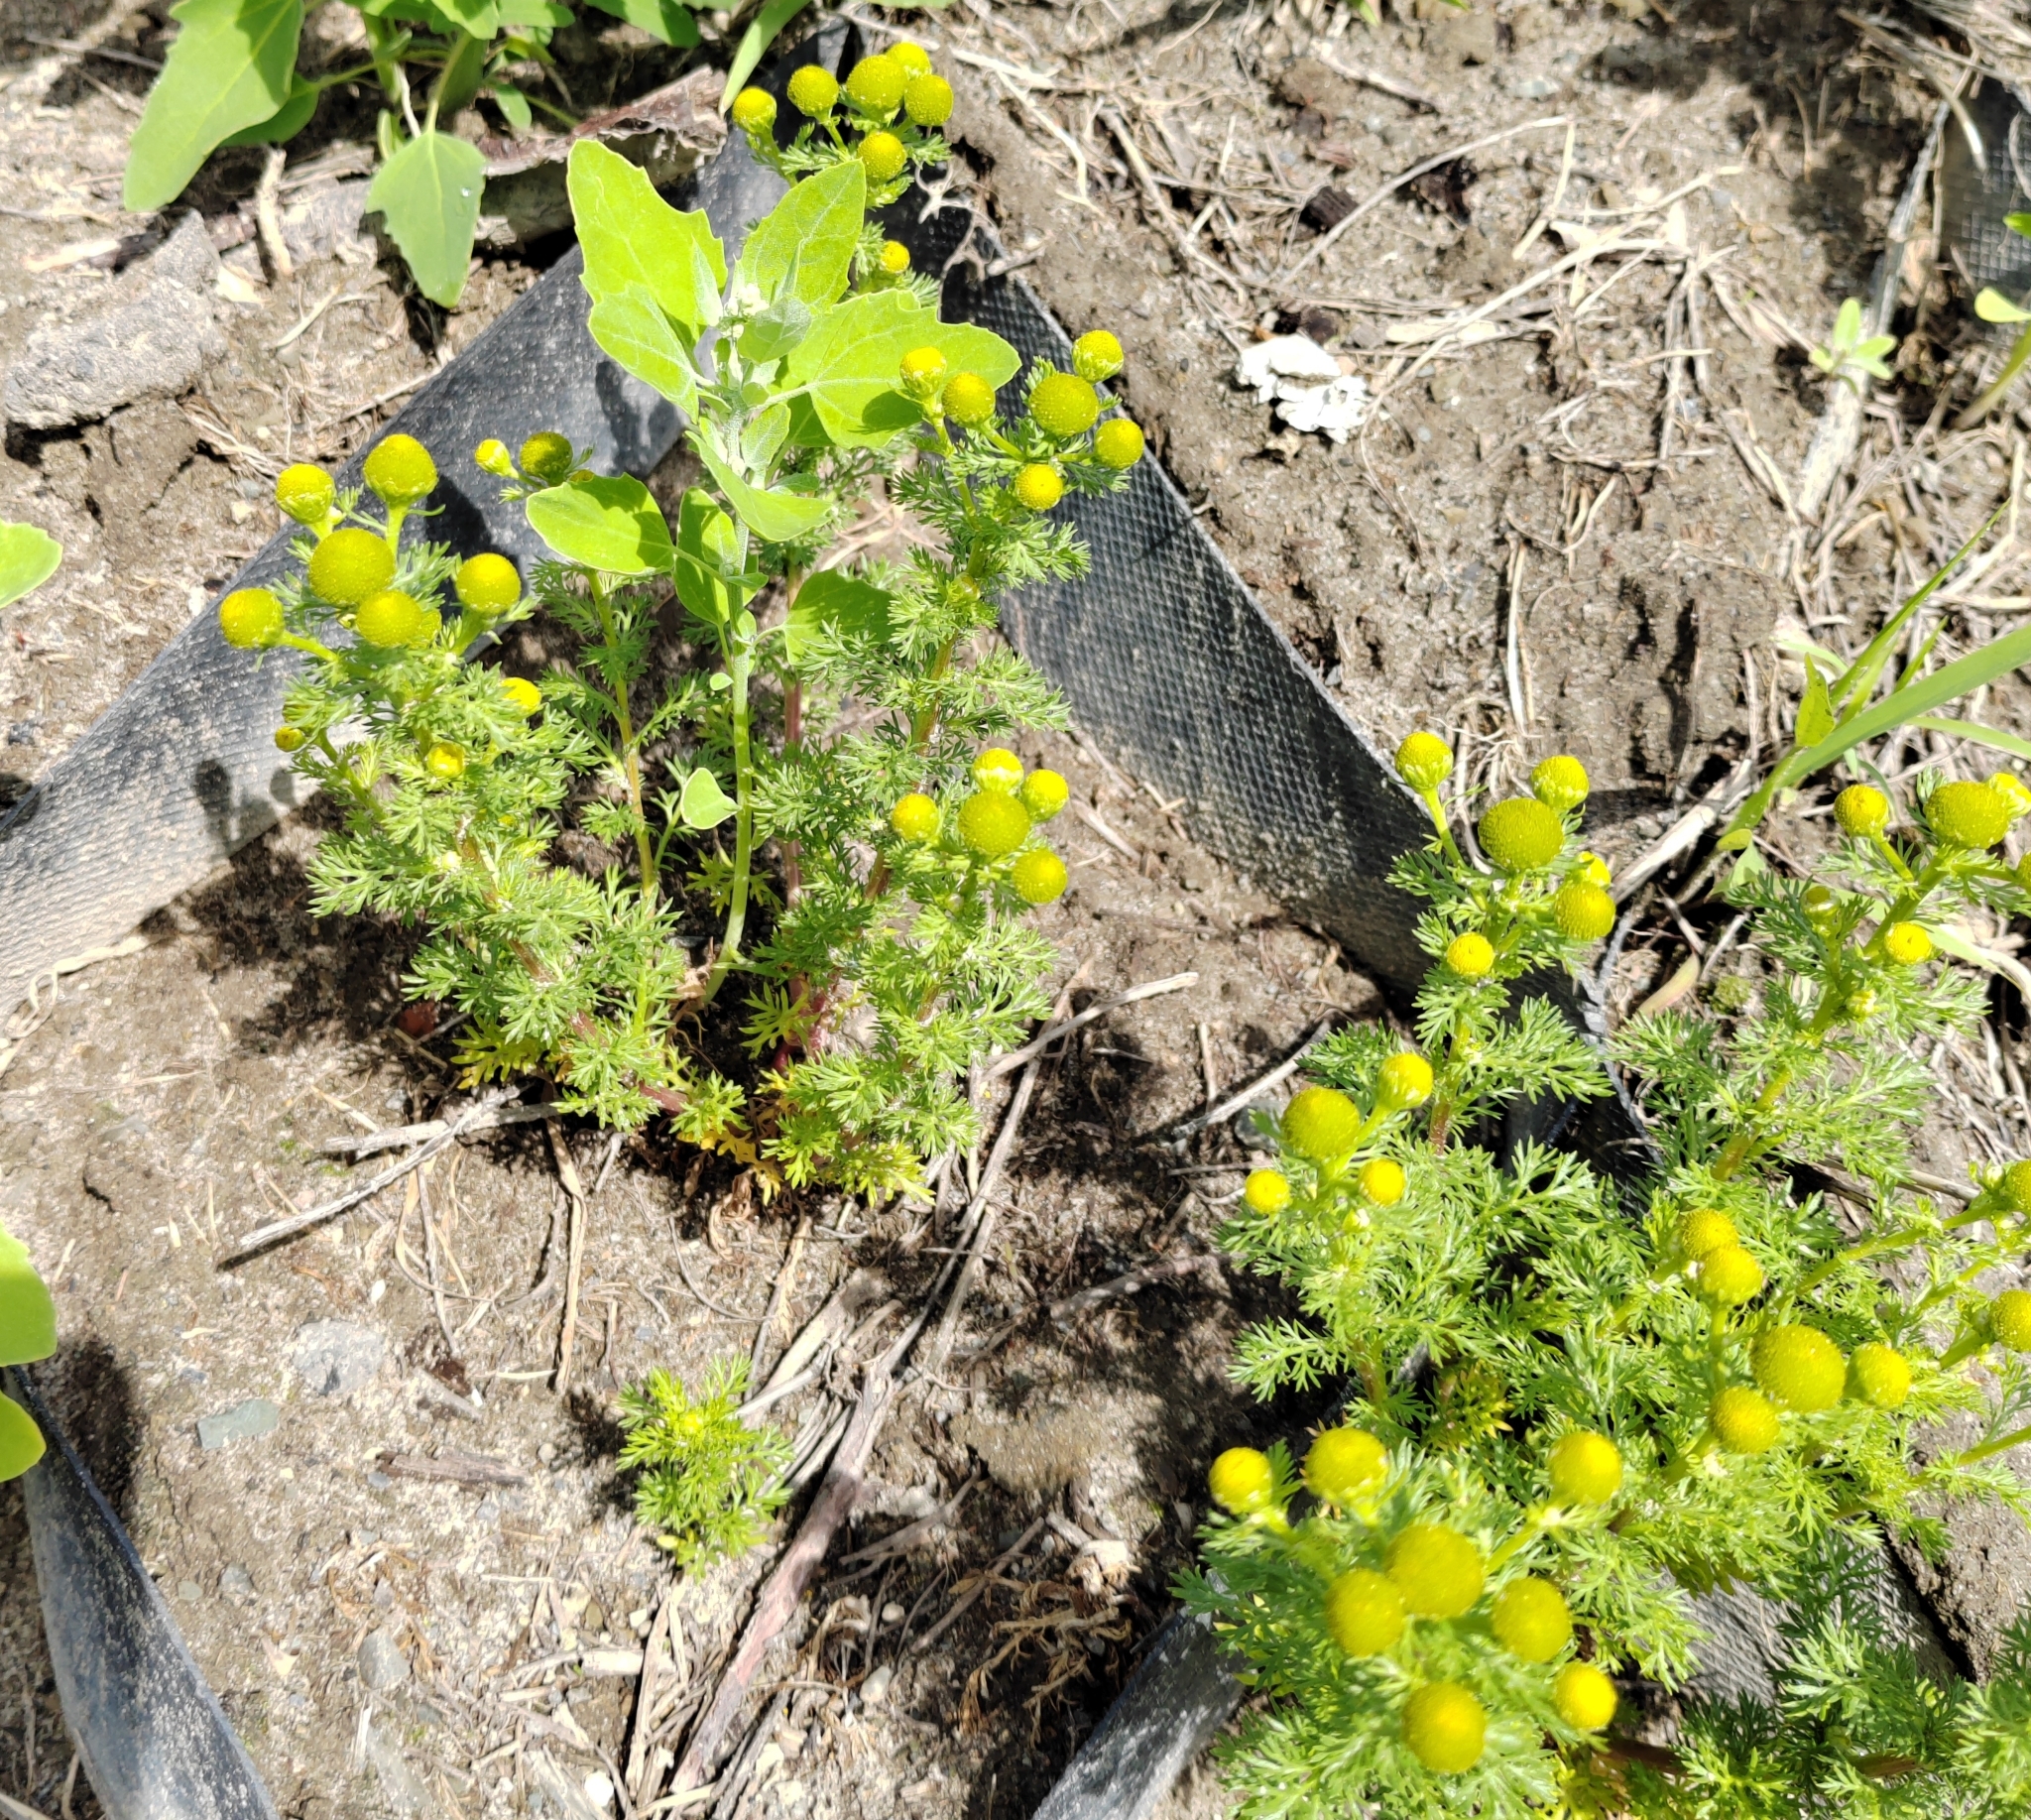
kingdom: Plantae
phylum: Tracheophyta
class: Magnoliopsida
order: Asterales
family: Asteraceae
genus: Matricaria
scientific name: Matricaria discoidea
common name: Disc mayweed
